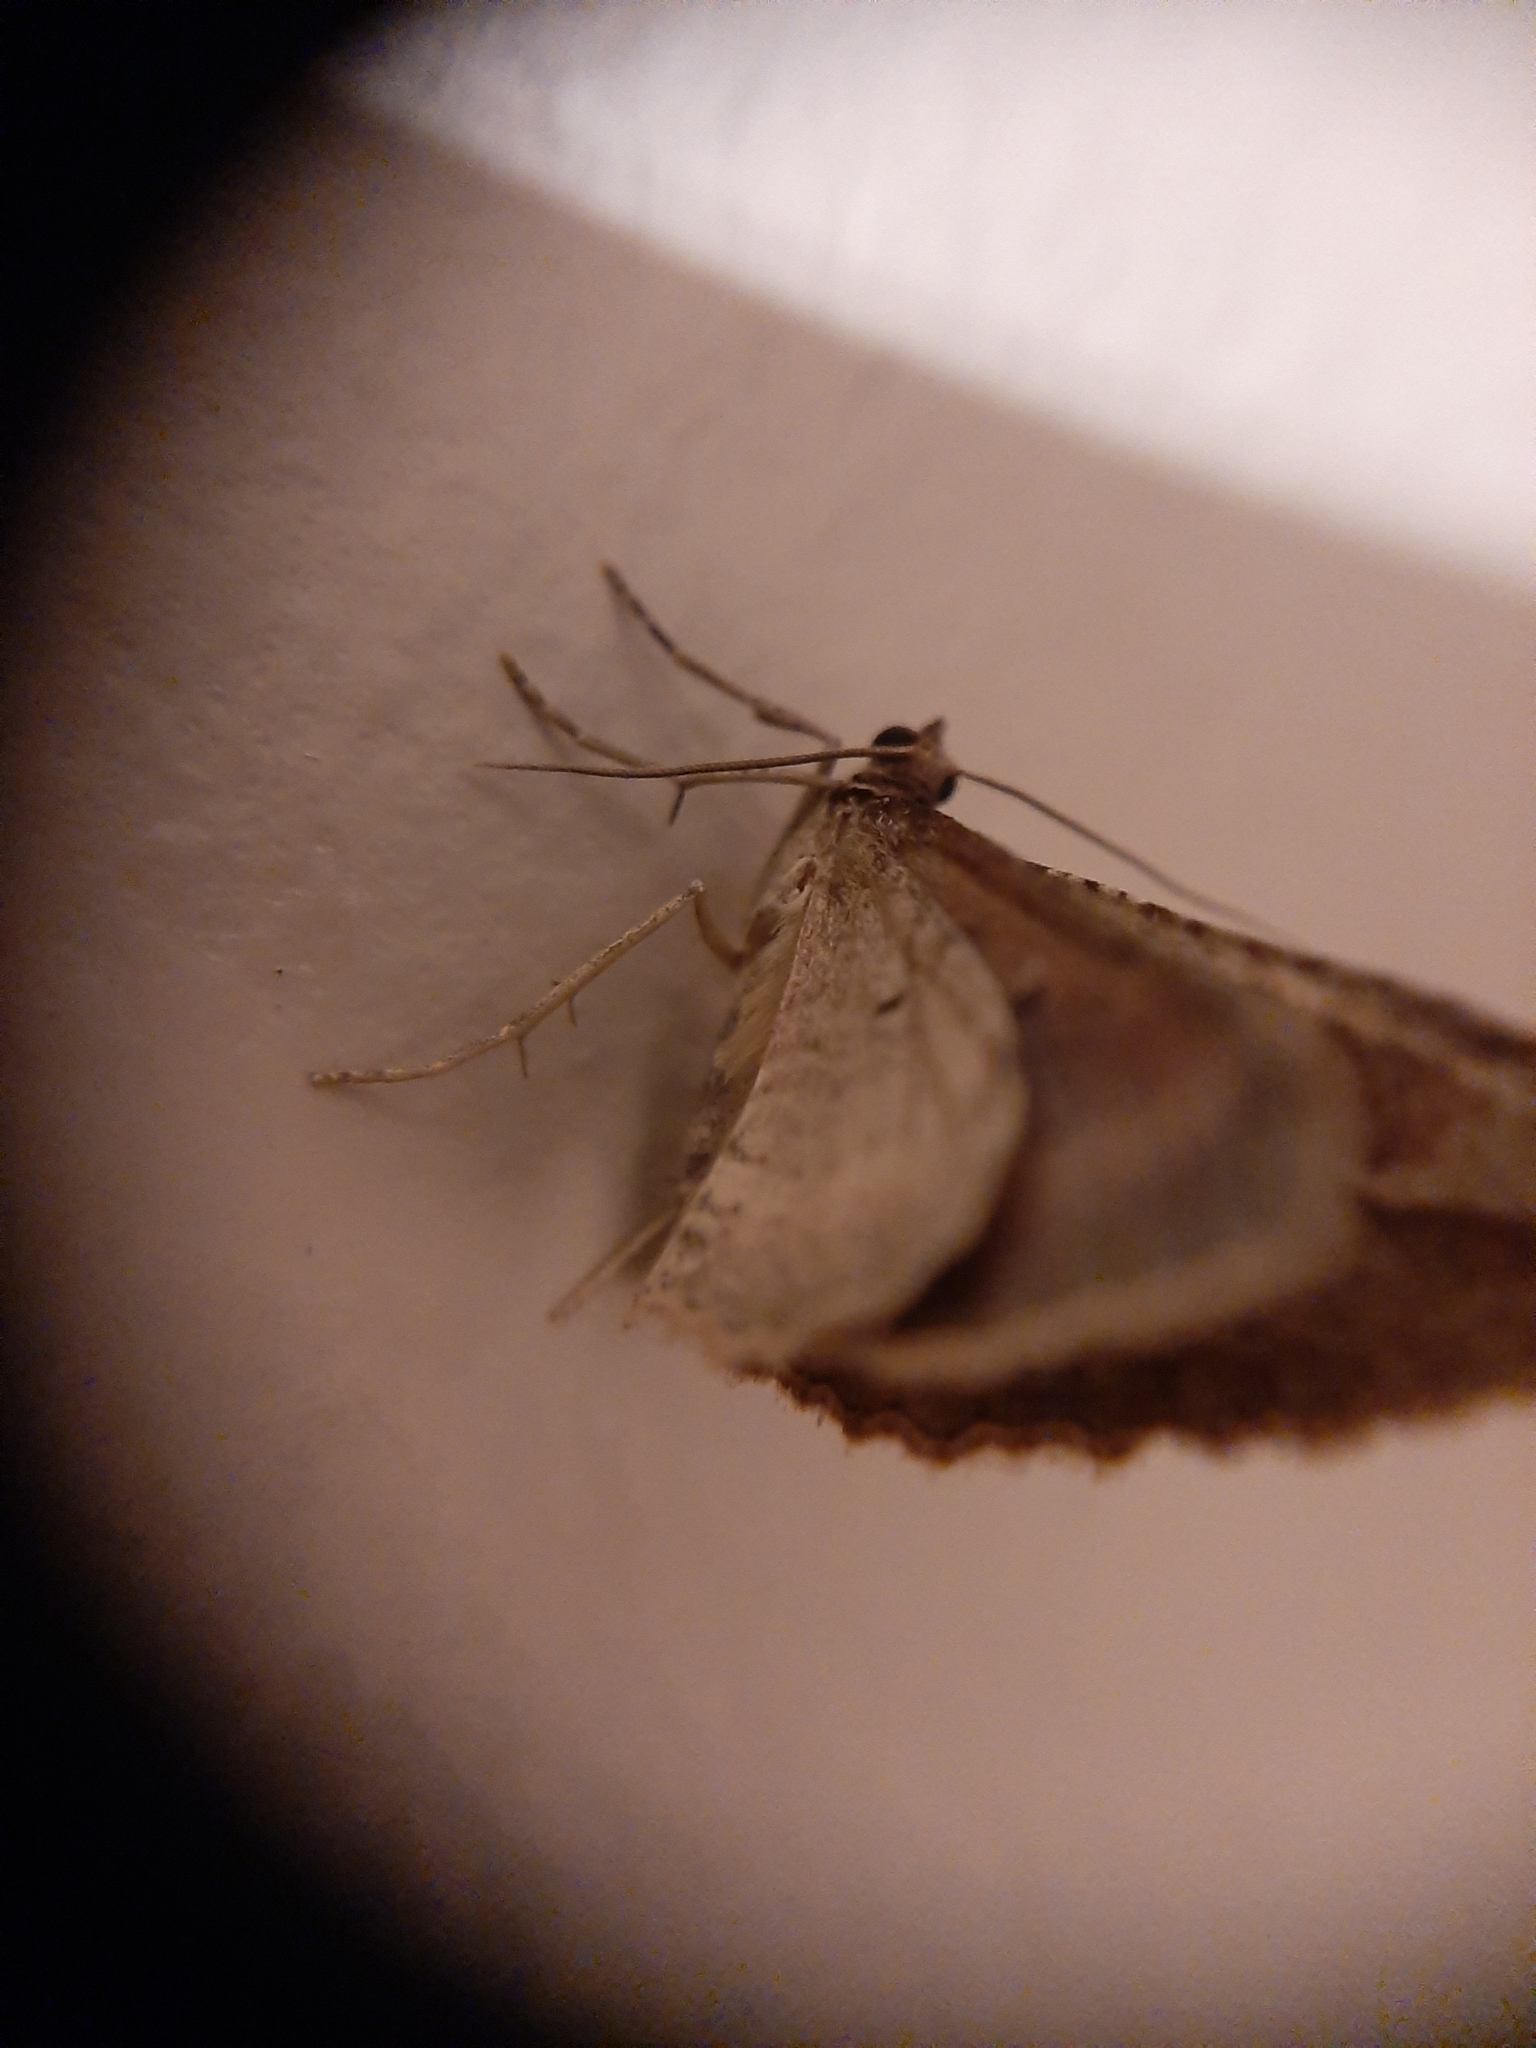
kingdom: Animalia
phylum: Arthropoda
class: Insecta
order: Lepidoptera
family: Geometridae
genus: Austrocidaria
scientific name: Austrocidaria gobiata
